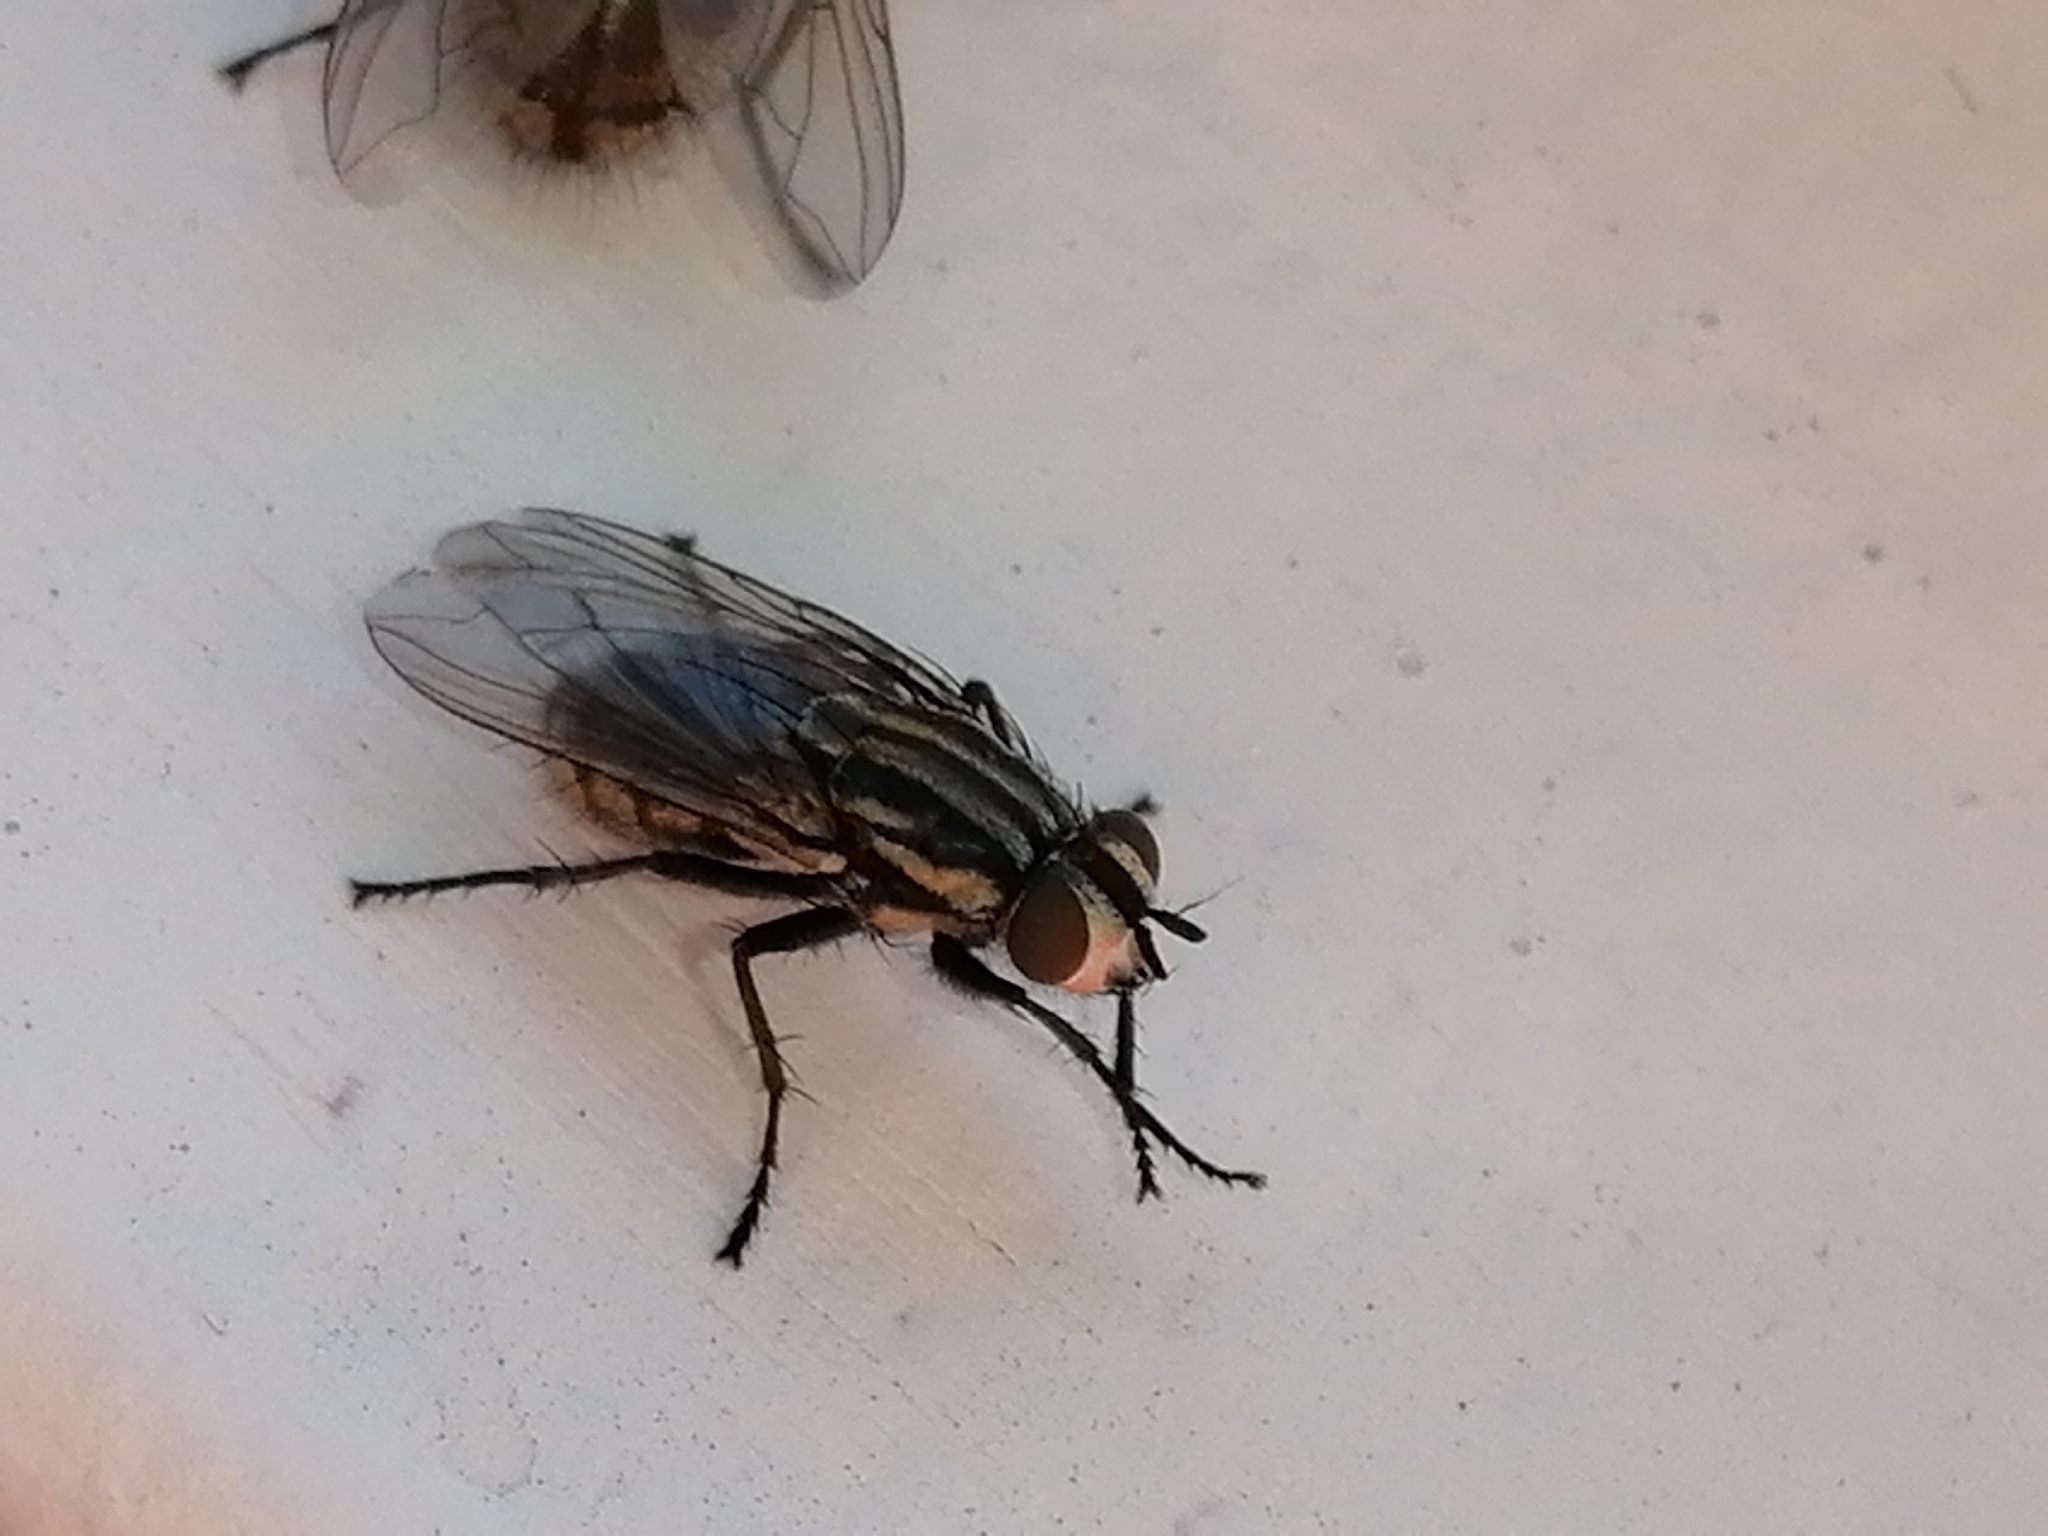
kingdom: Animalia
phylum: Arthropoda
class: Insecta
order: Diptera
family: Sarcophagidae
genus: Oxysarcodexia
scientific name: Oxysarcodexia varia
